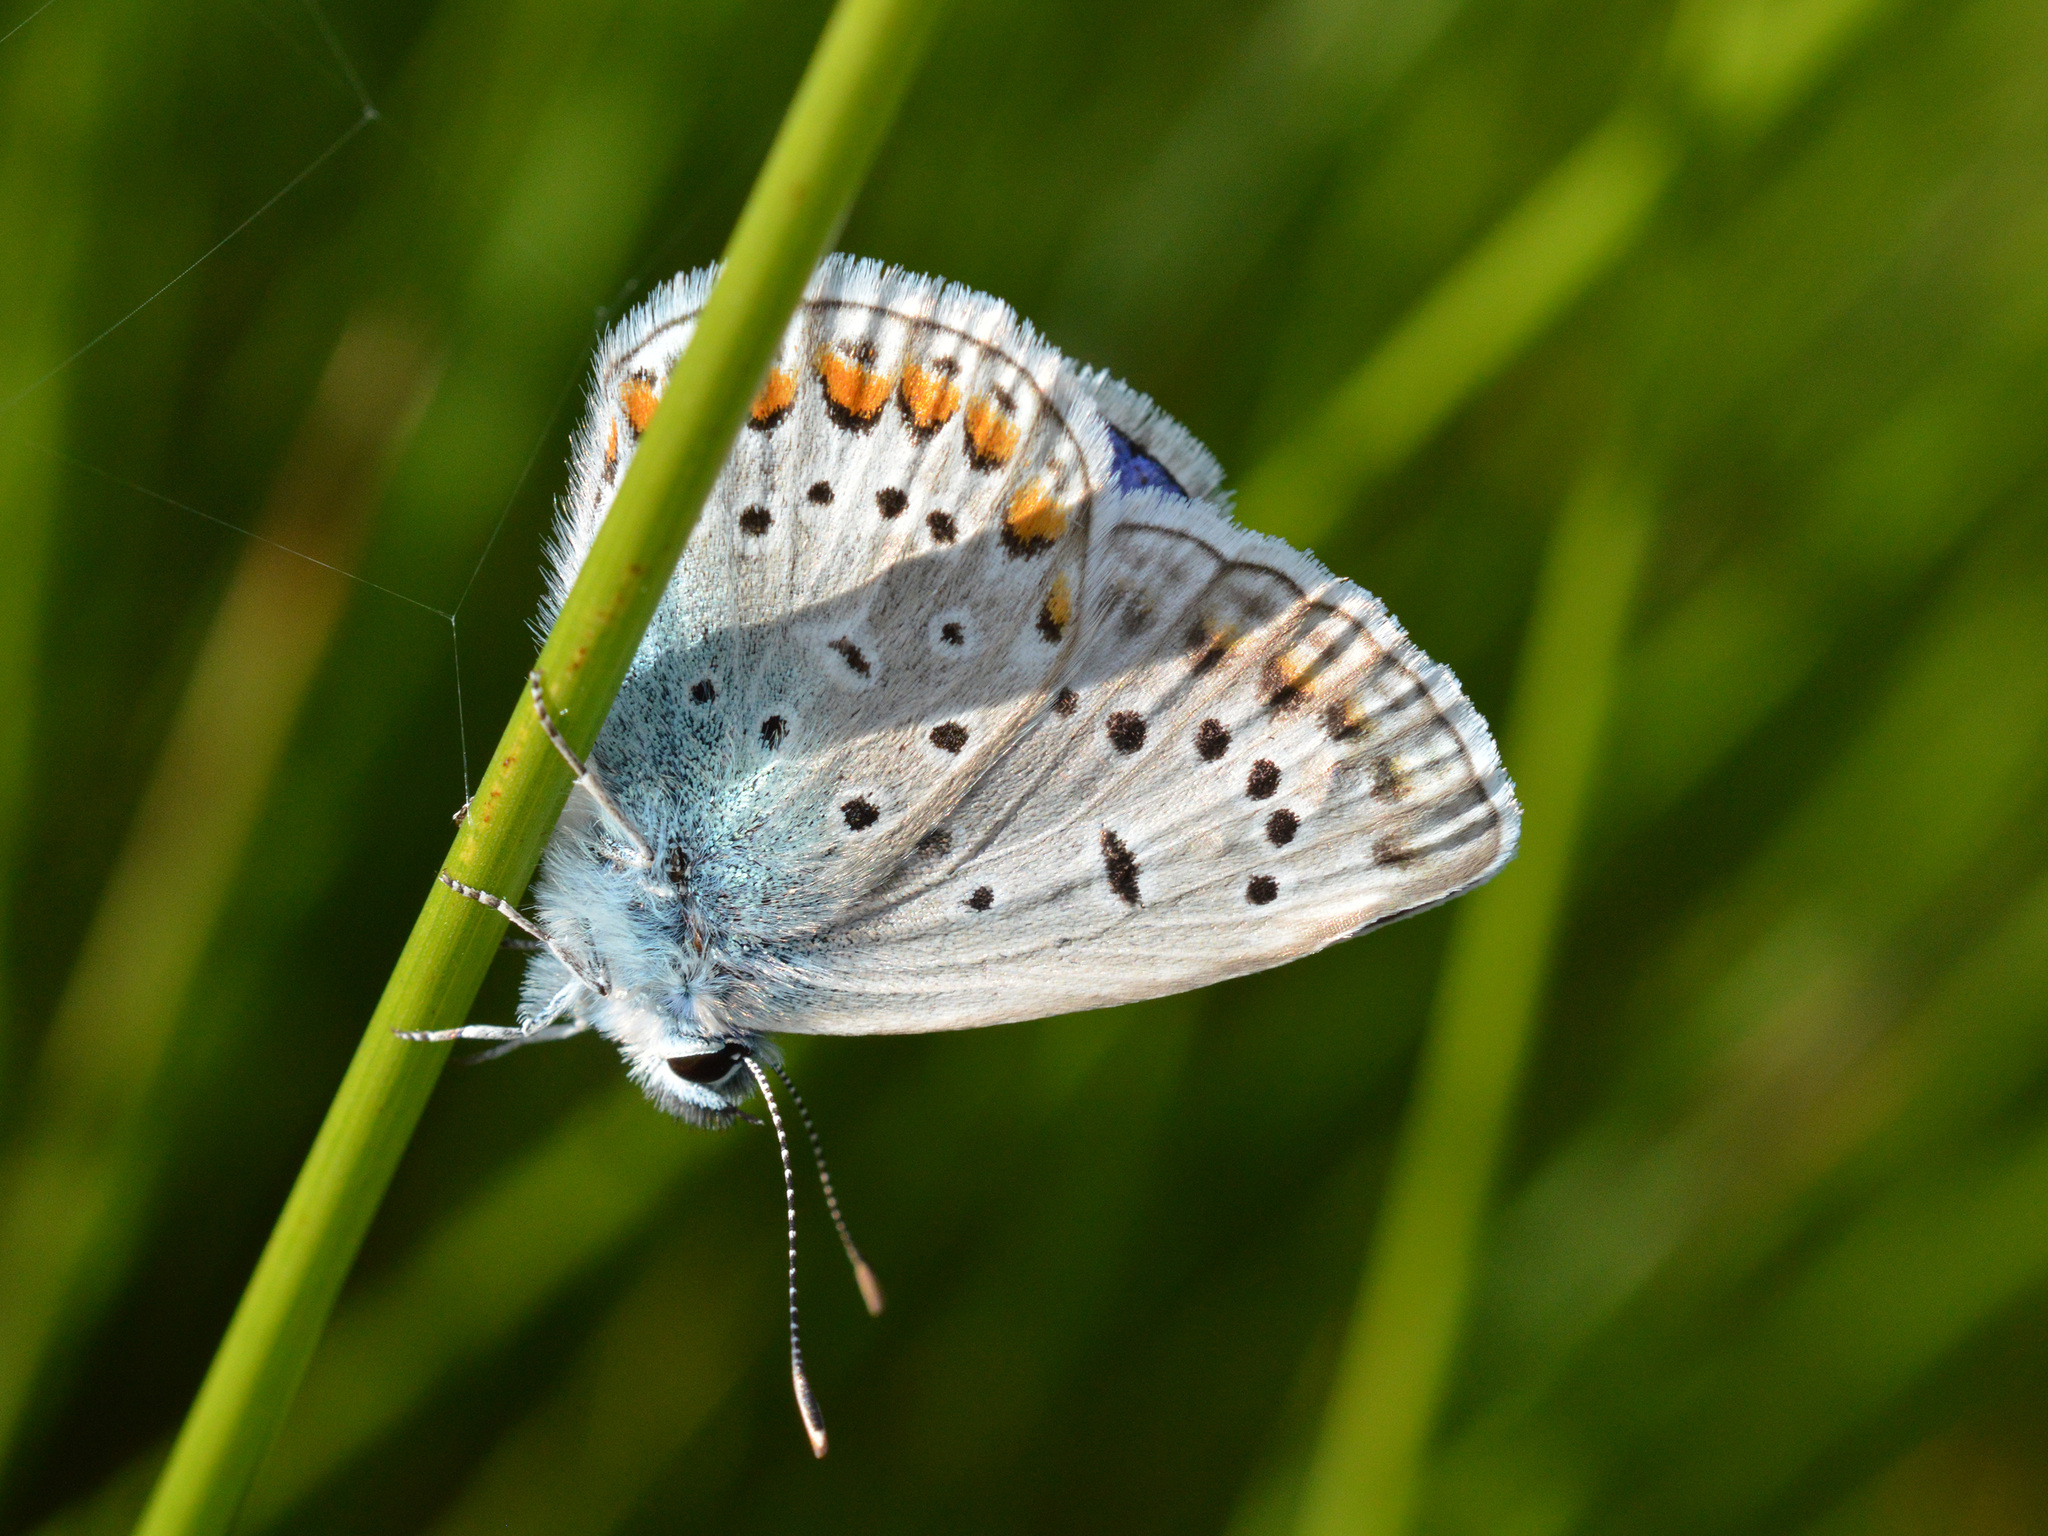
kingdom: Animalia
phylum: Arthropoda
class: Insecta
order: Lepidoptera
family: Lycaenidae
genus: Polyommatus
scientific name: Polyommatus icarus
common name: Common blue
